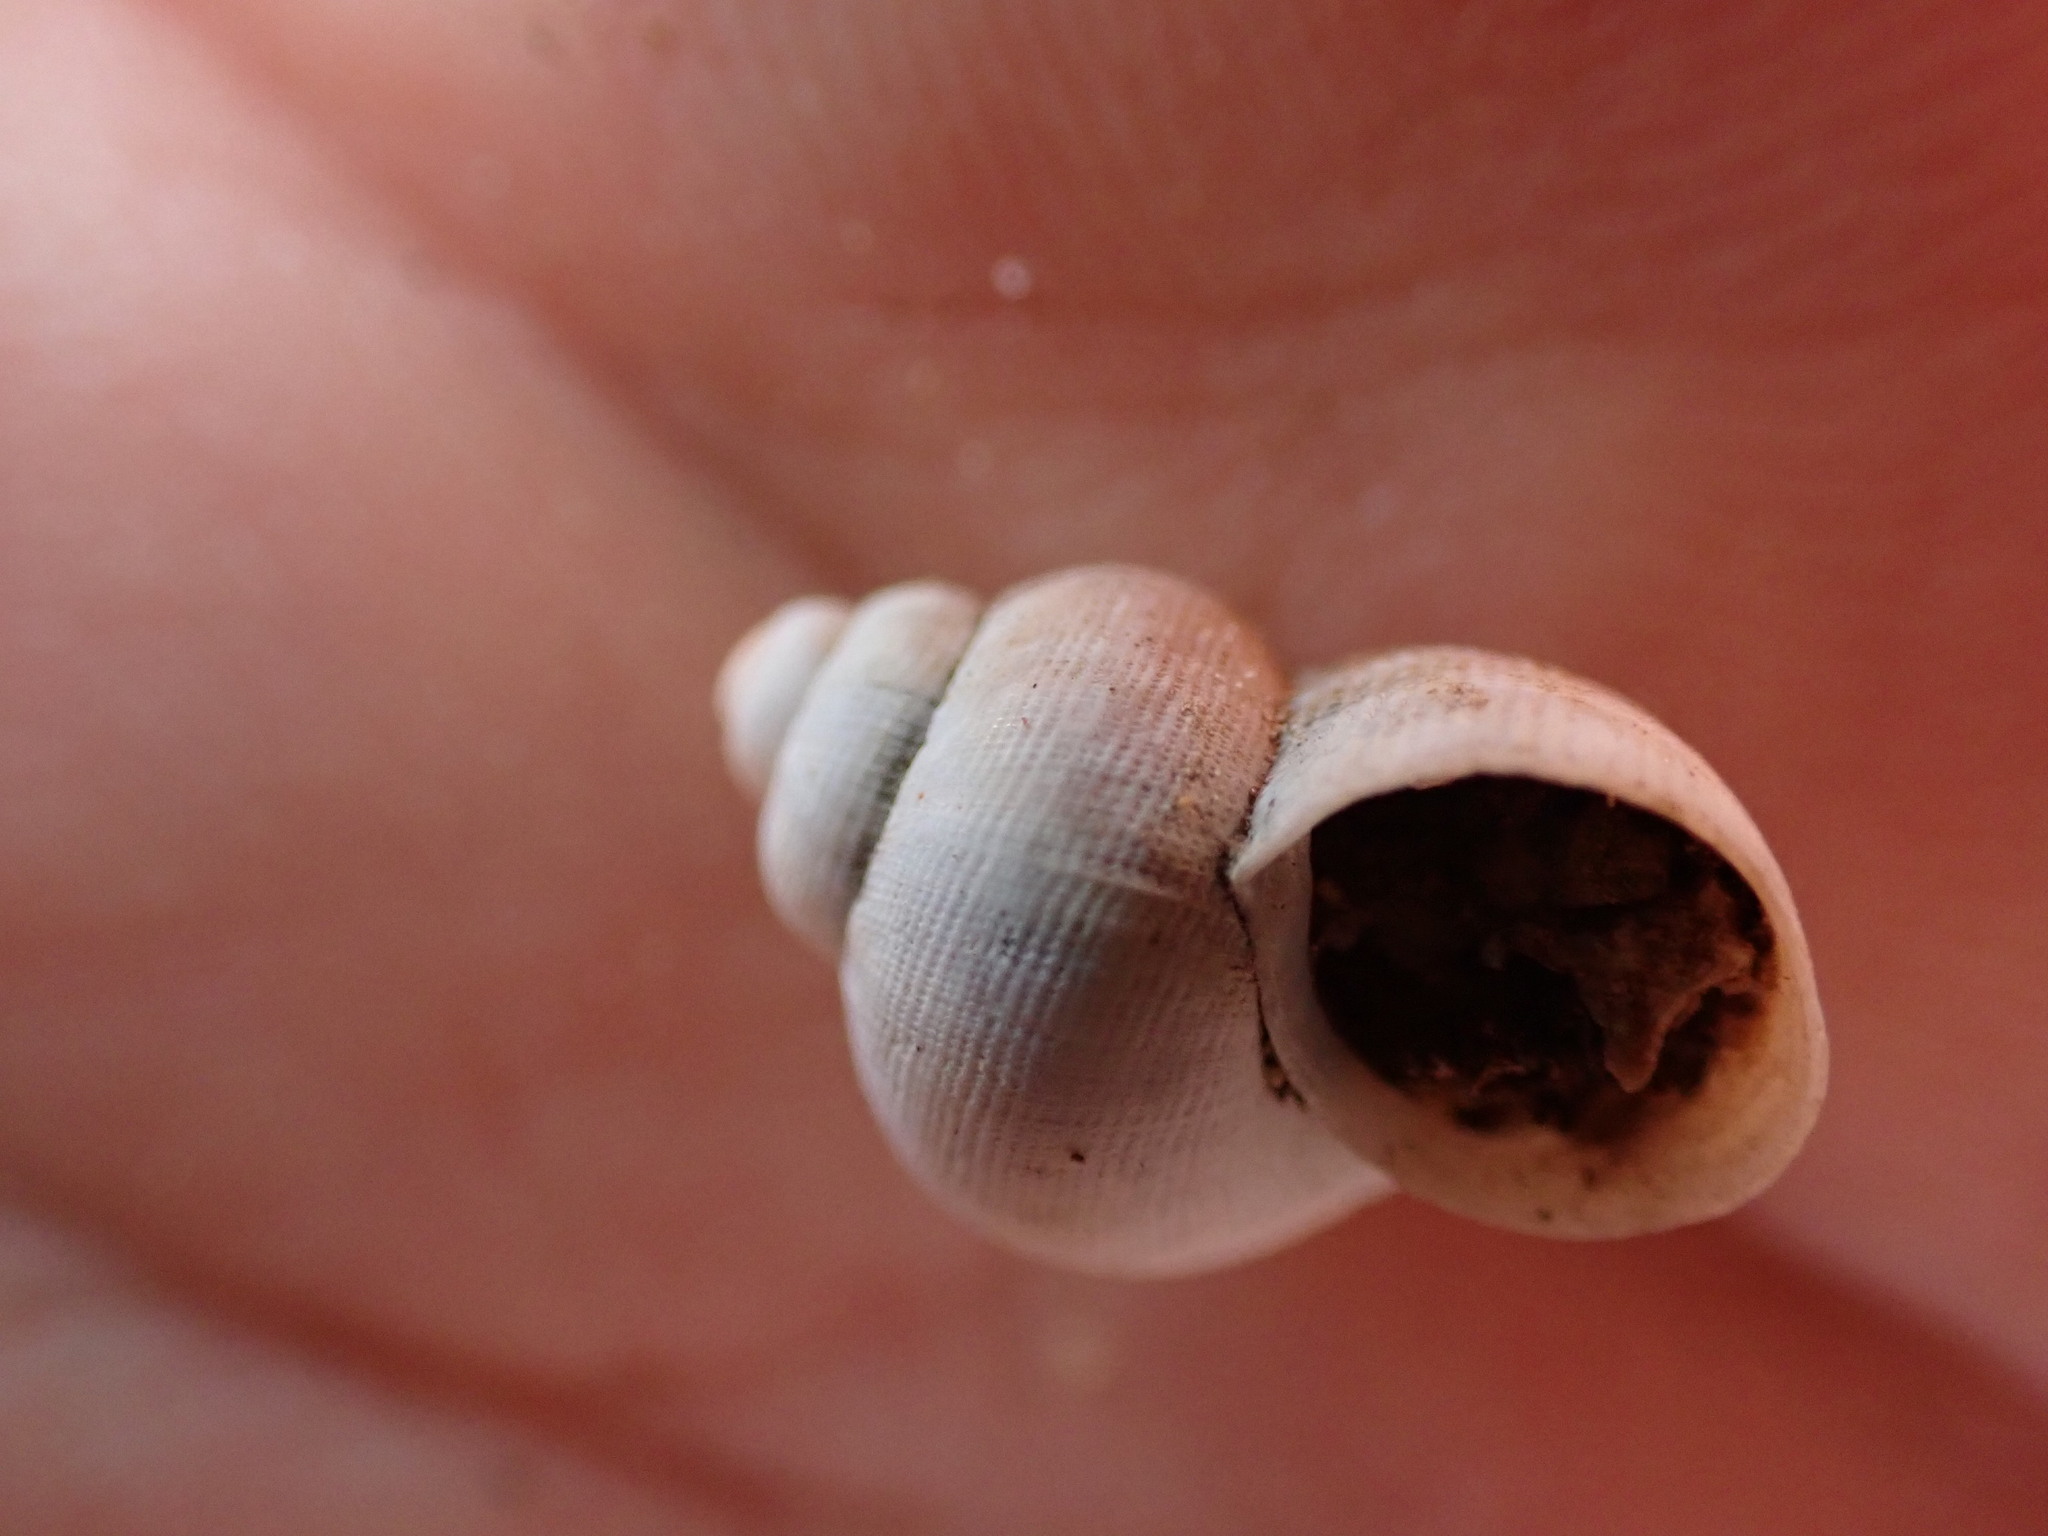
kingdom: Animalia
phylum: Mollusca
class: Gastropoda
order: Littorinimorpha
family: Pomatiidae
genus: Pomatias
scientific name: Pomatias elegans
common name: Red-mouthed snail
